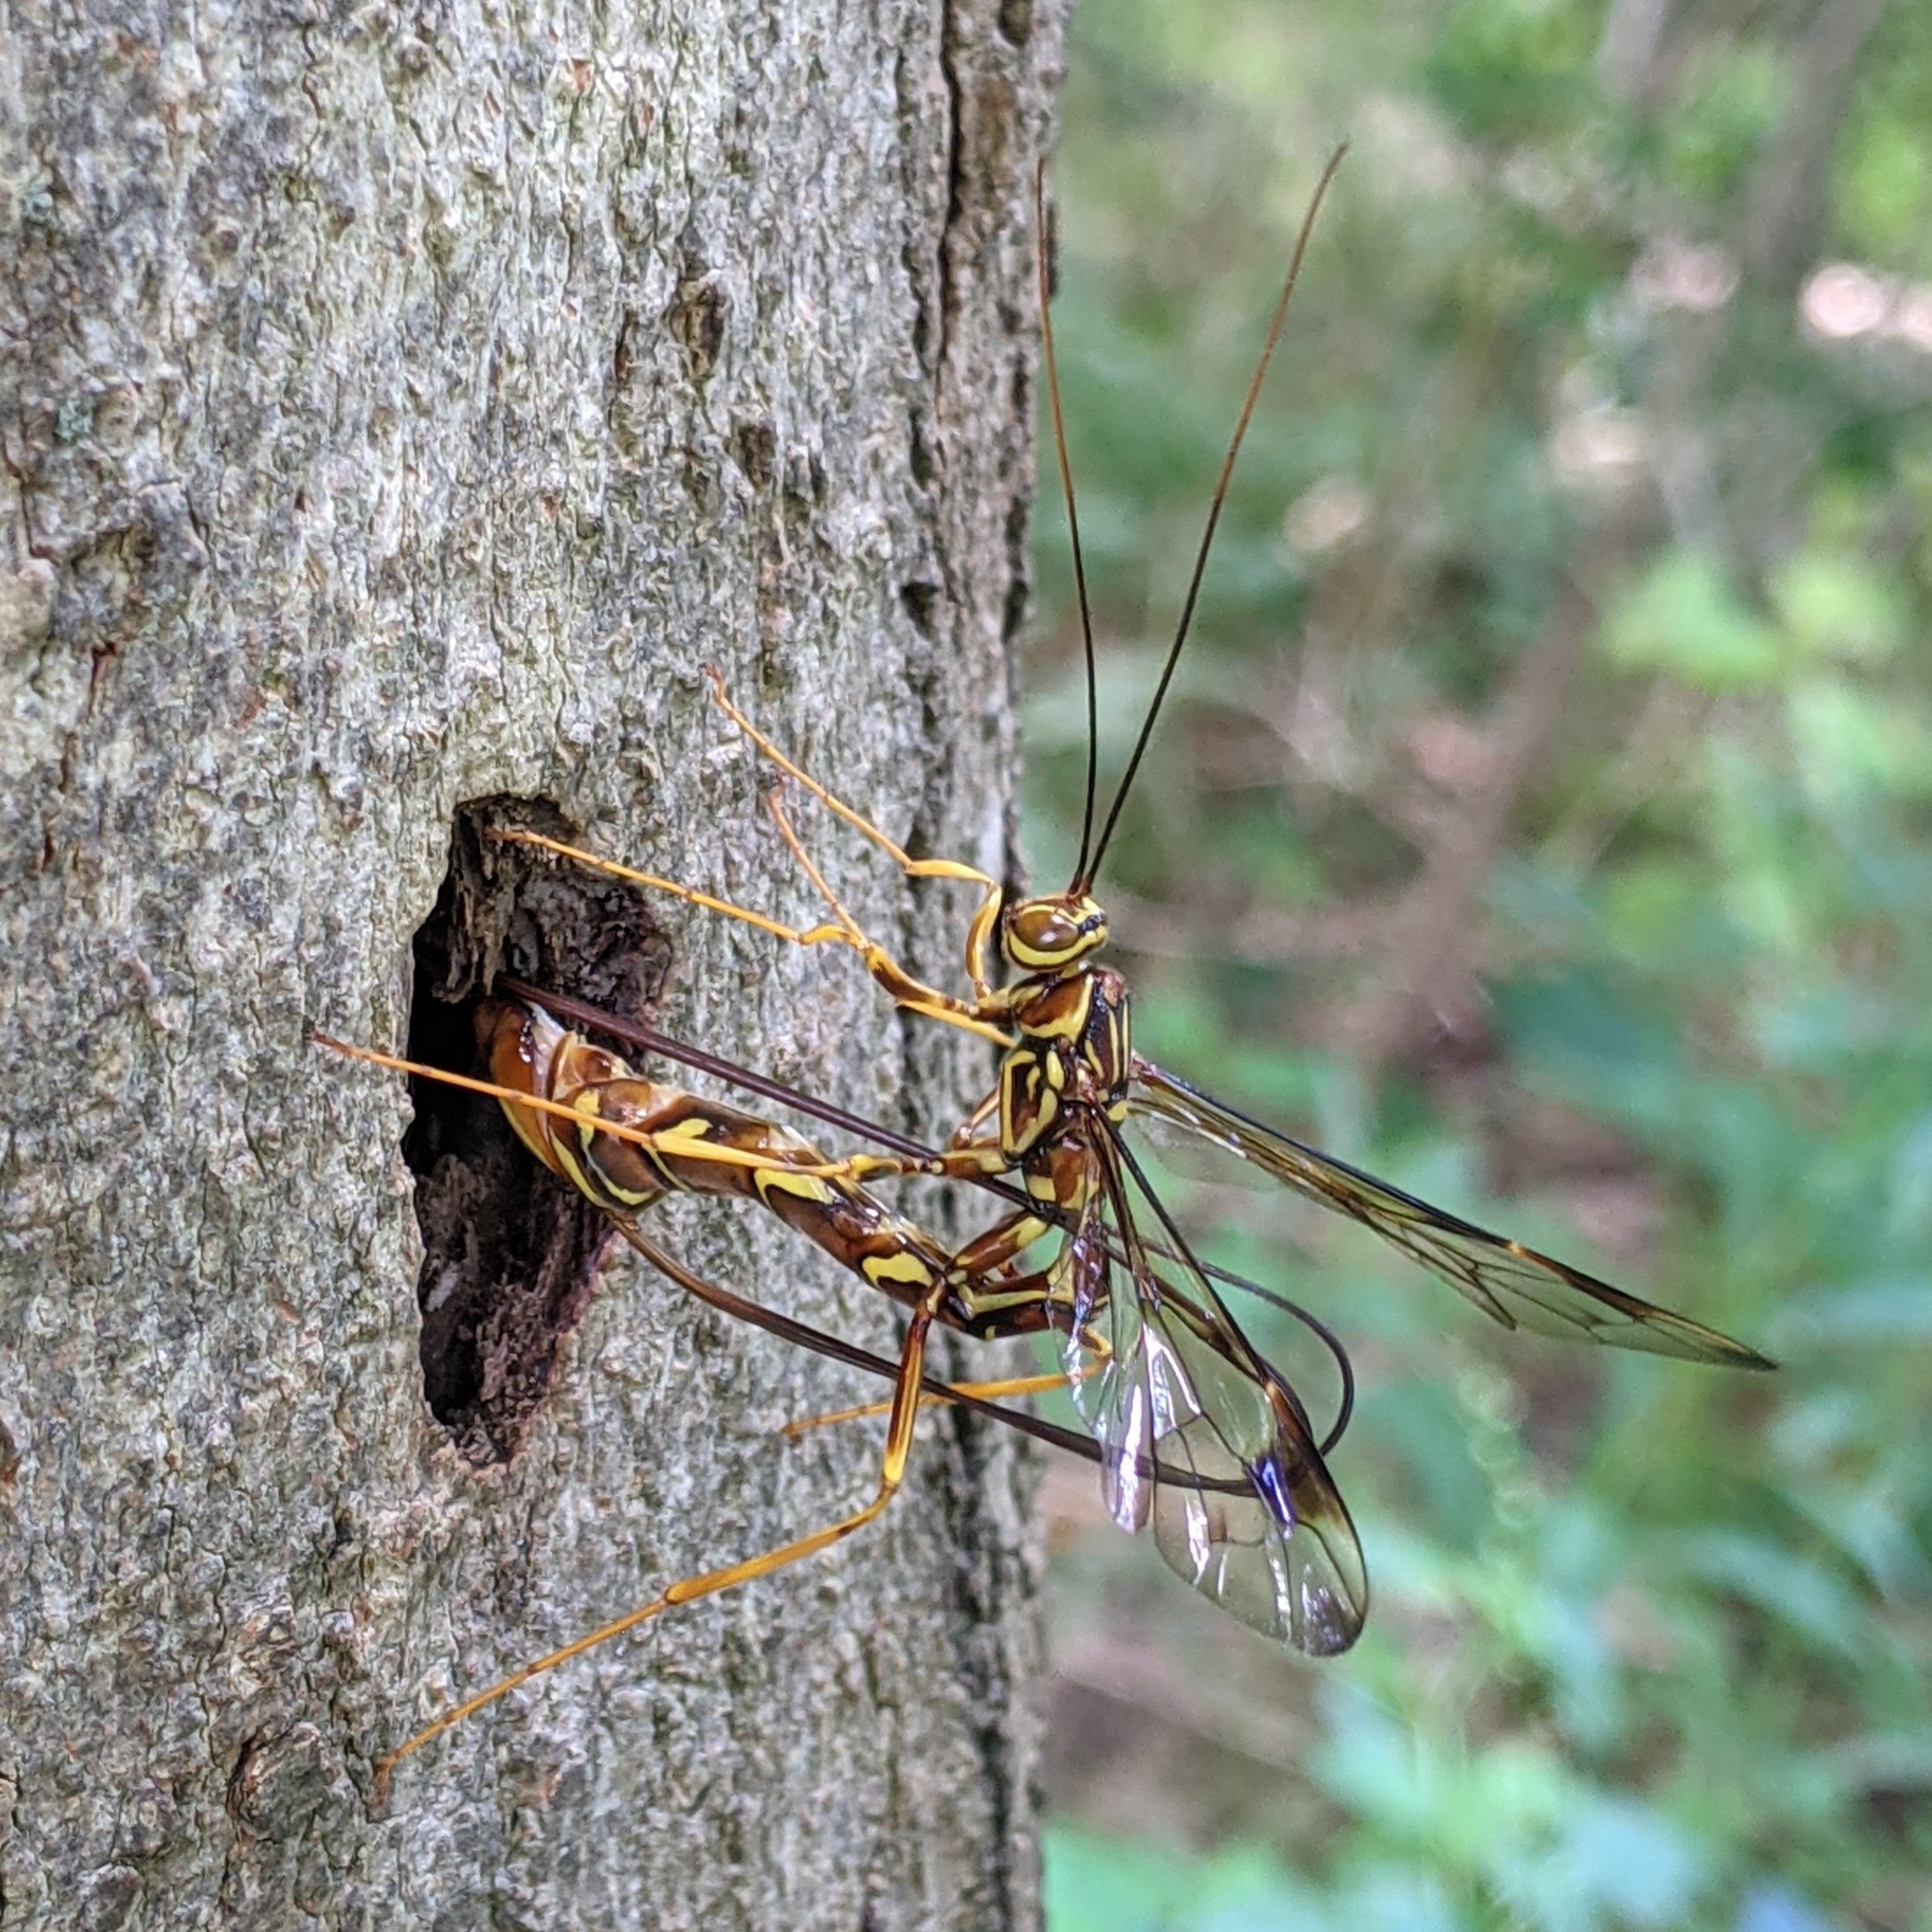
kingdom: Animalia
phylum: Arthropoda
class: Insecta
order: Hymenoptera
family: Ichneumonidae
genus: Megarhyssa
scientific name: Megarhyssa macrura
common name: Long-tailed giant ichneumonid wasp
